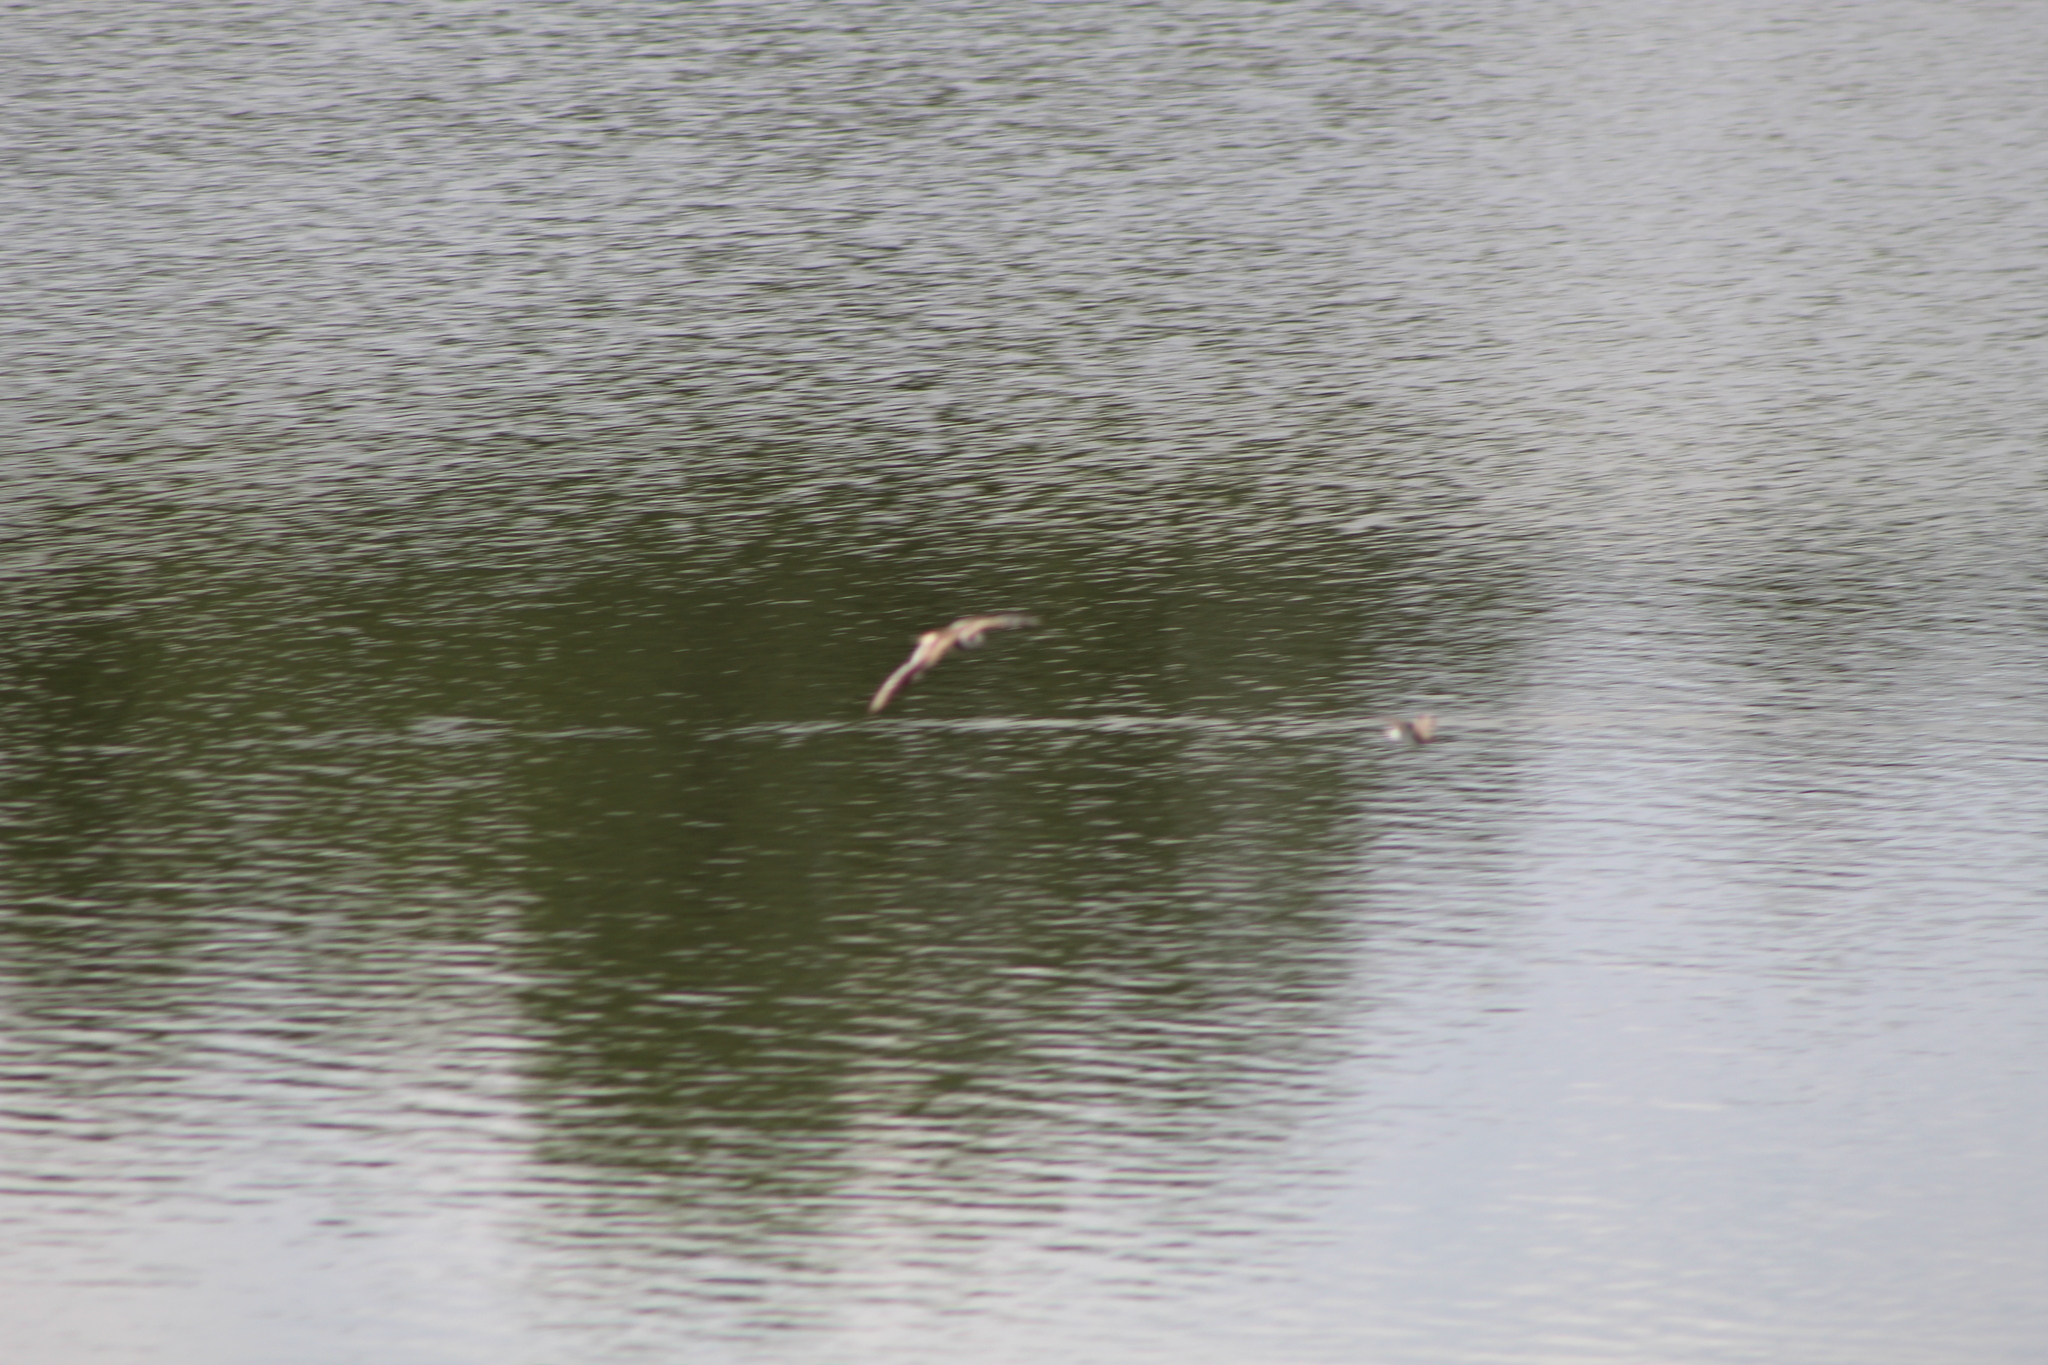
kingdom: Animalia
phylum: Chordata
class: Aves
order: Charadriiformes
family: Charadriidae
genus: Charadrius
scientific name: Charadrius vociferus
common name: Killdeer
